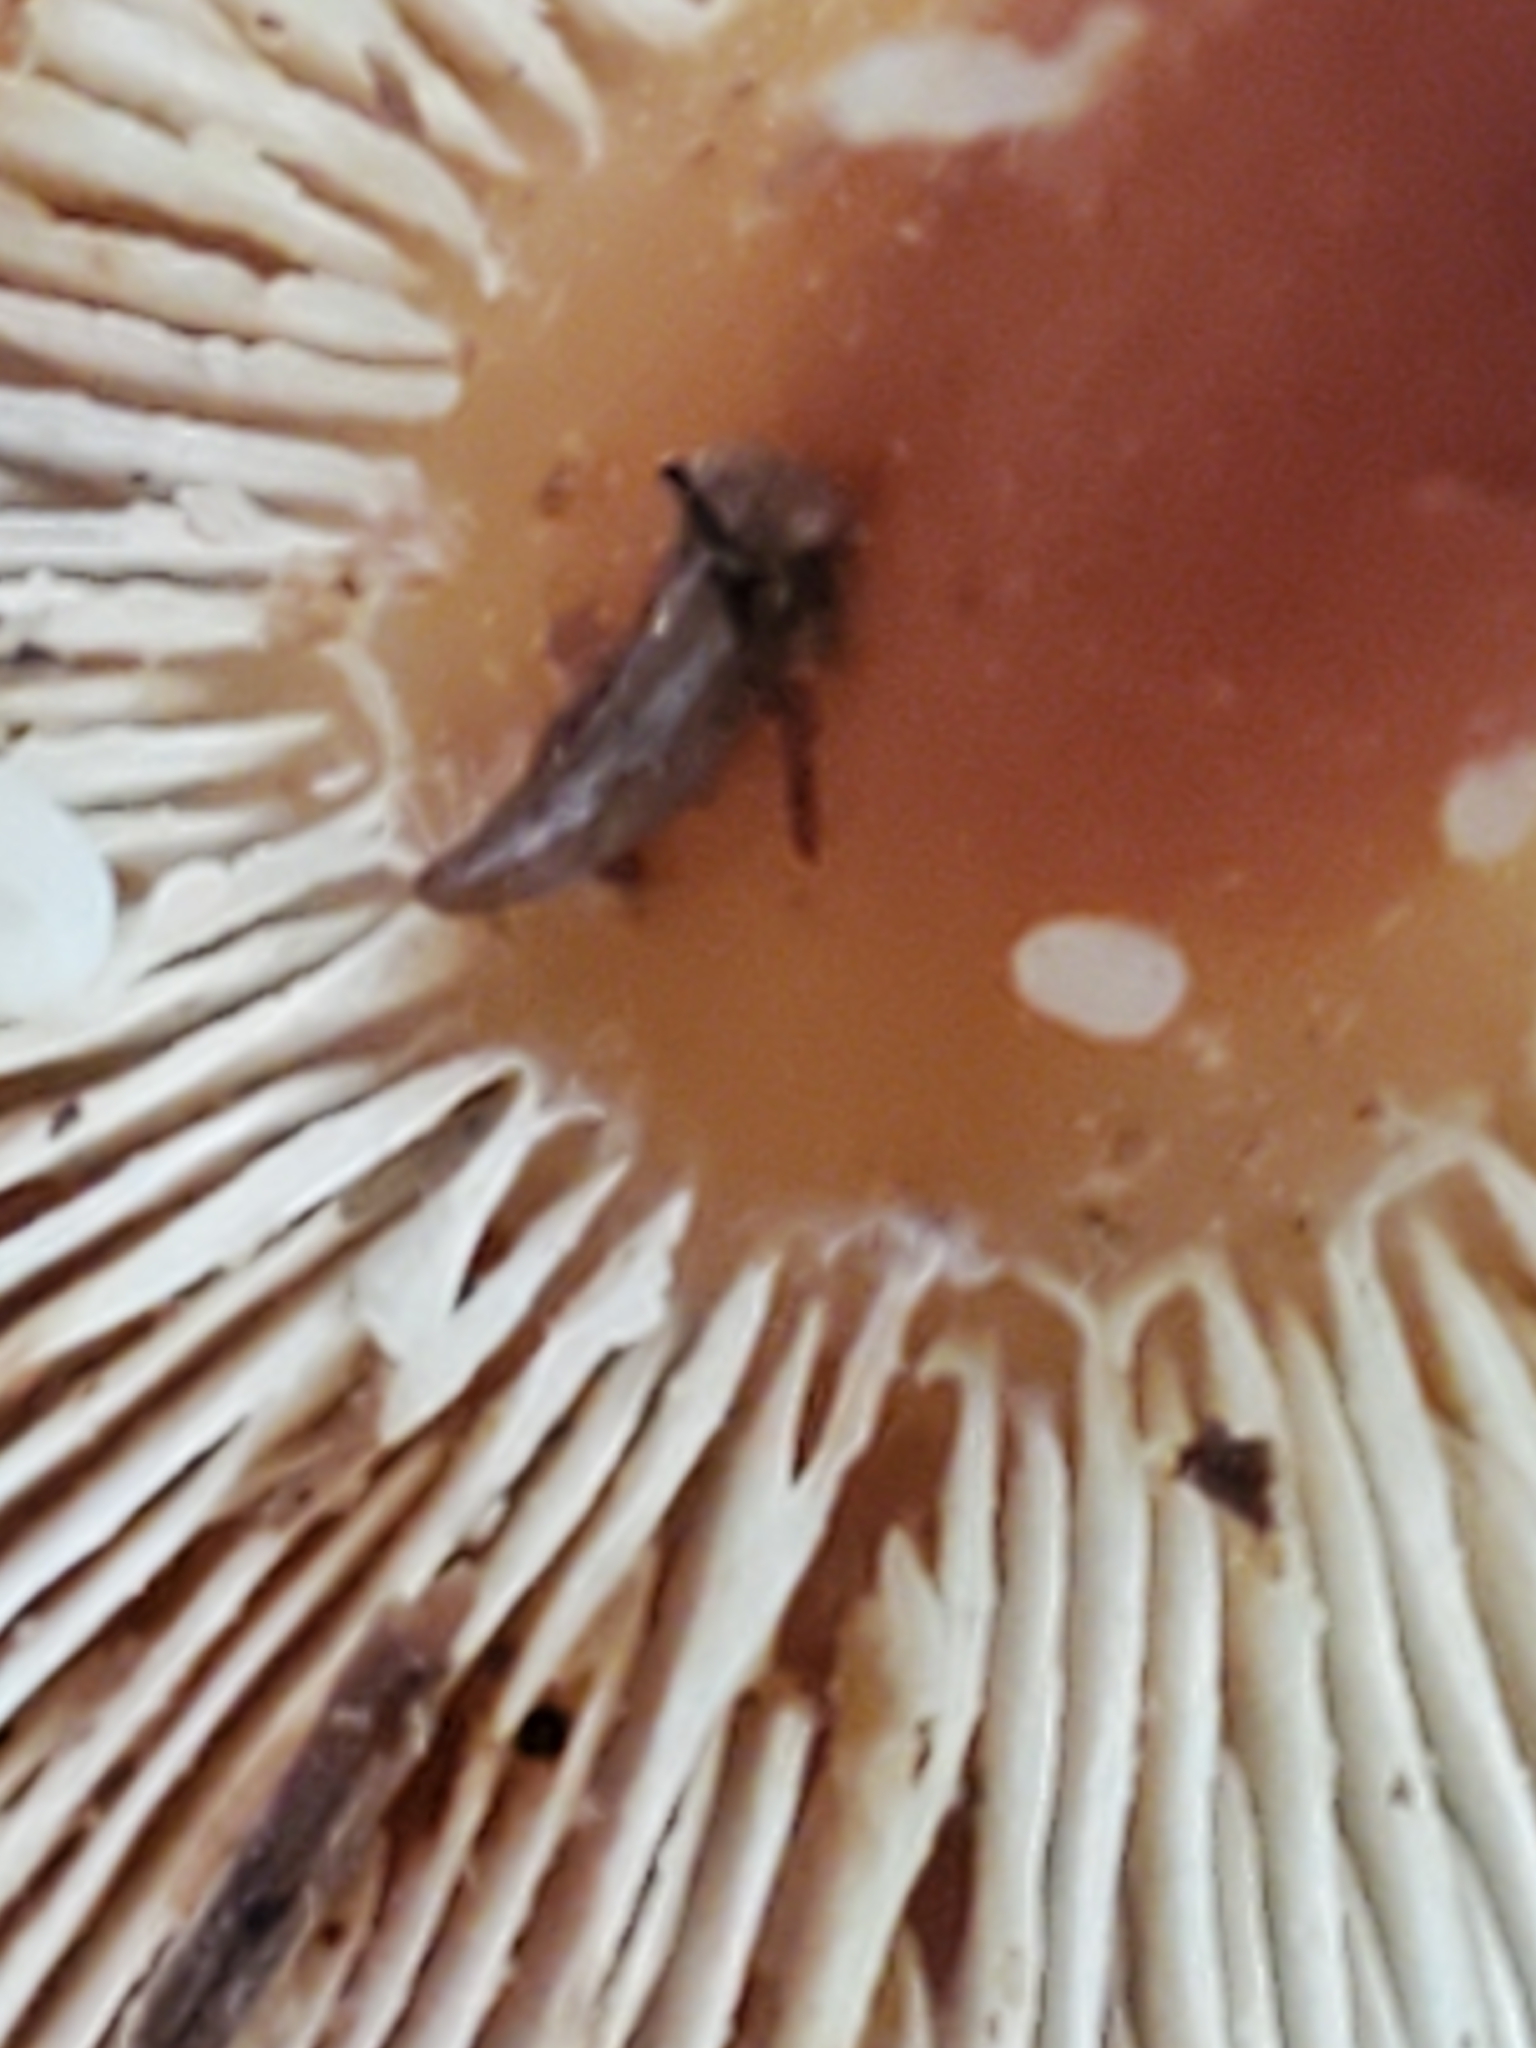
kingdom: Fungi
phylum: Basidiomycota
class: Agaricomycetes
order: Agaricales
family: Omphalotaceae
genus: Gymnopus
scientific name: Gymnopus dryophilus
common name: Penny top
